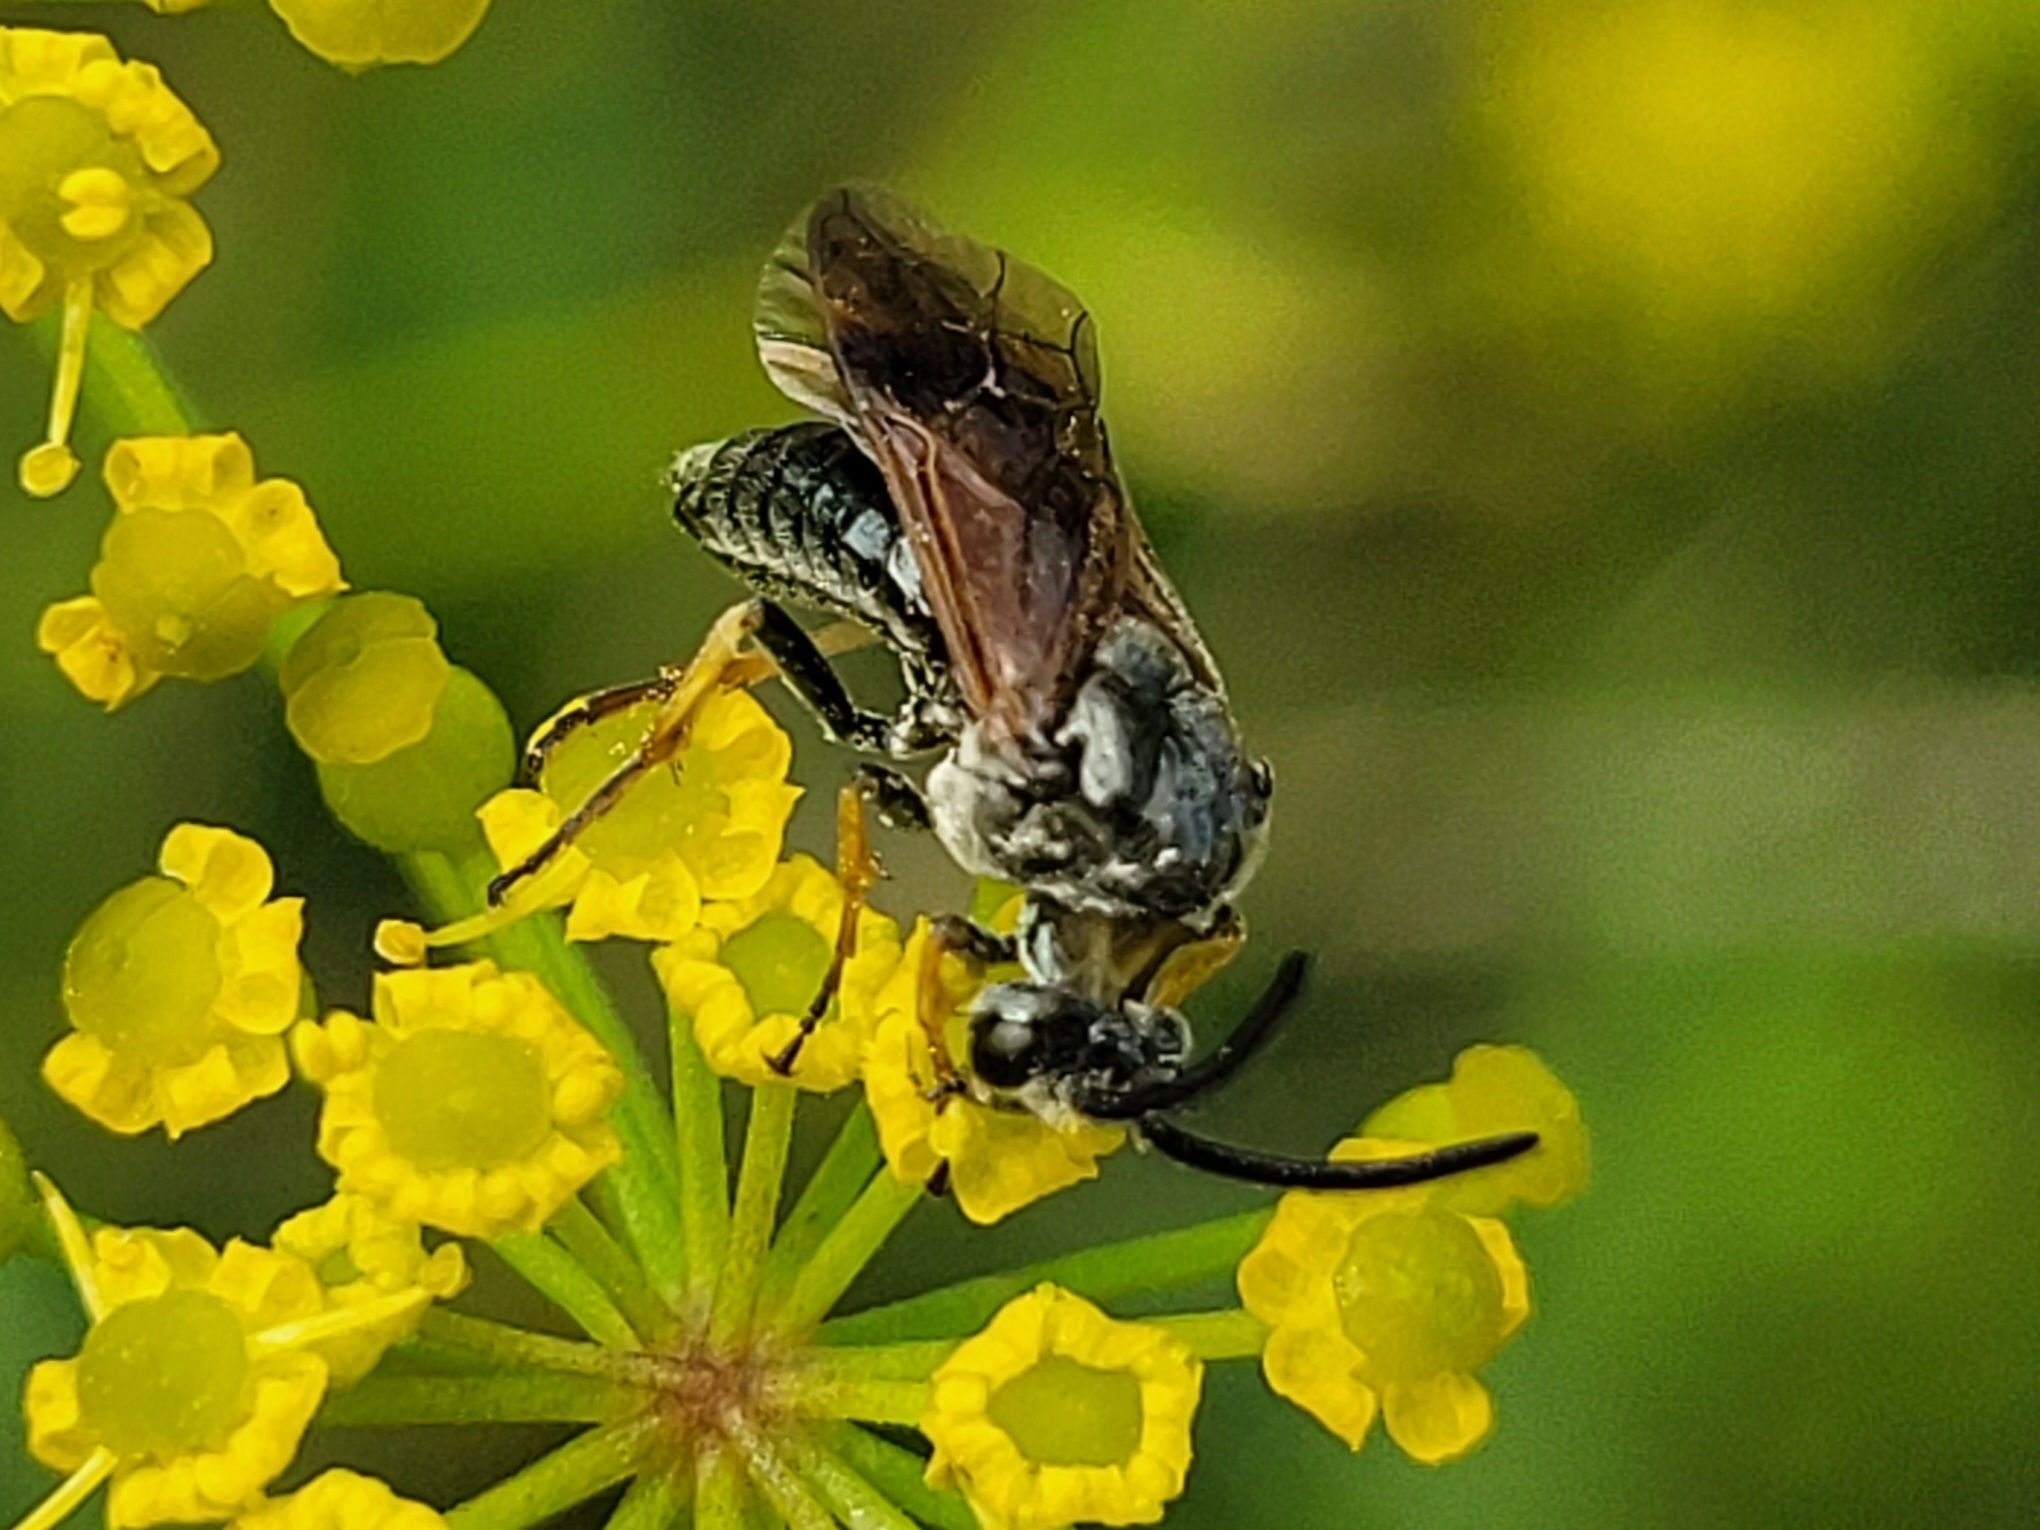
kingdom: Animalia
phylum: Arthropoda
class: Insecta
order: Hymenoptera
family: Argidae
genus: Arge
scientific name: Arge ustulata
